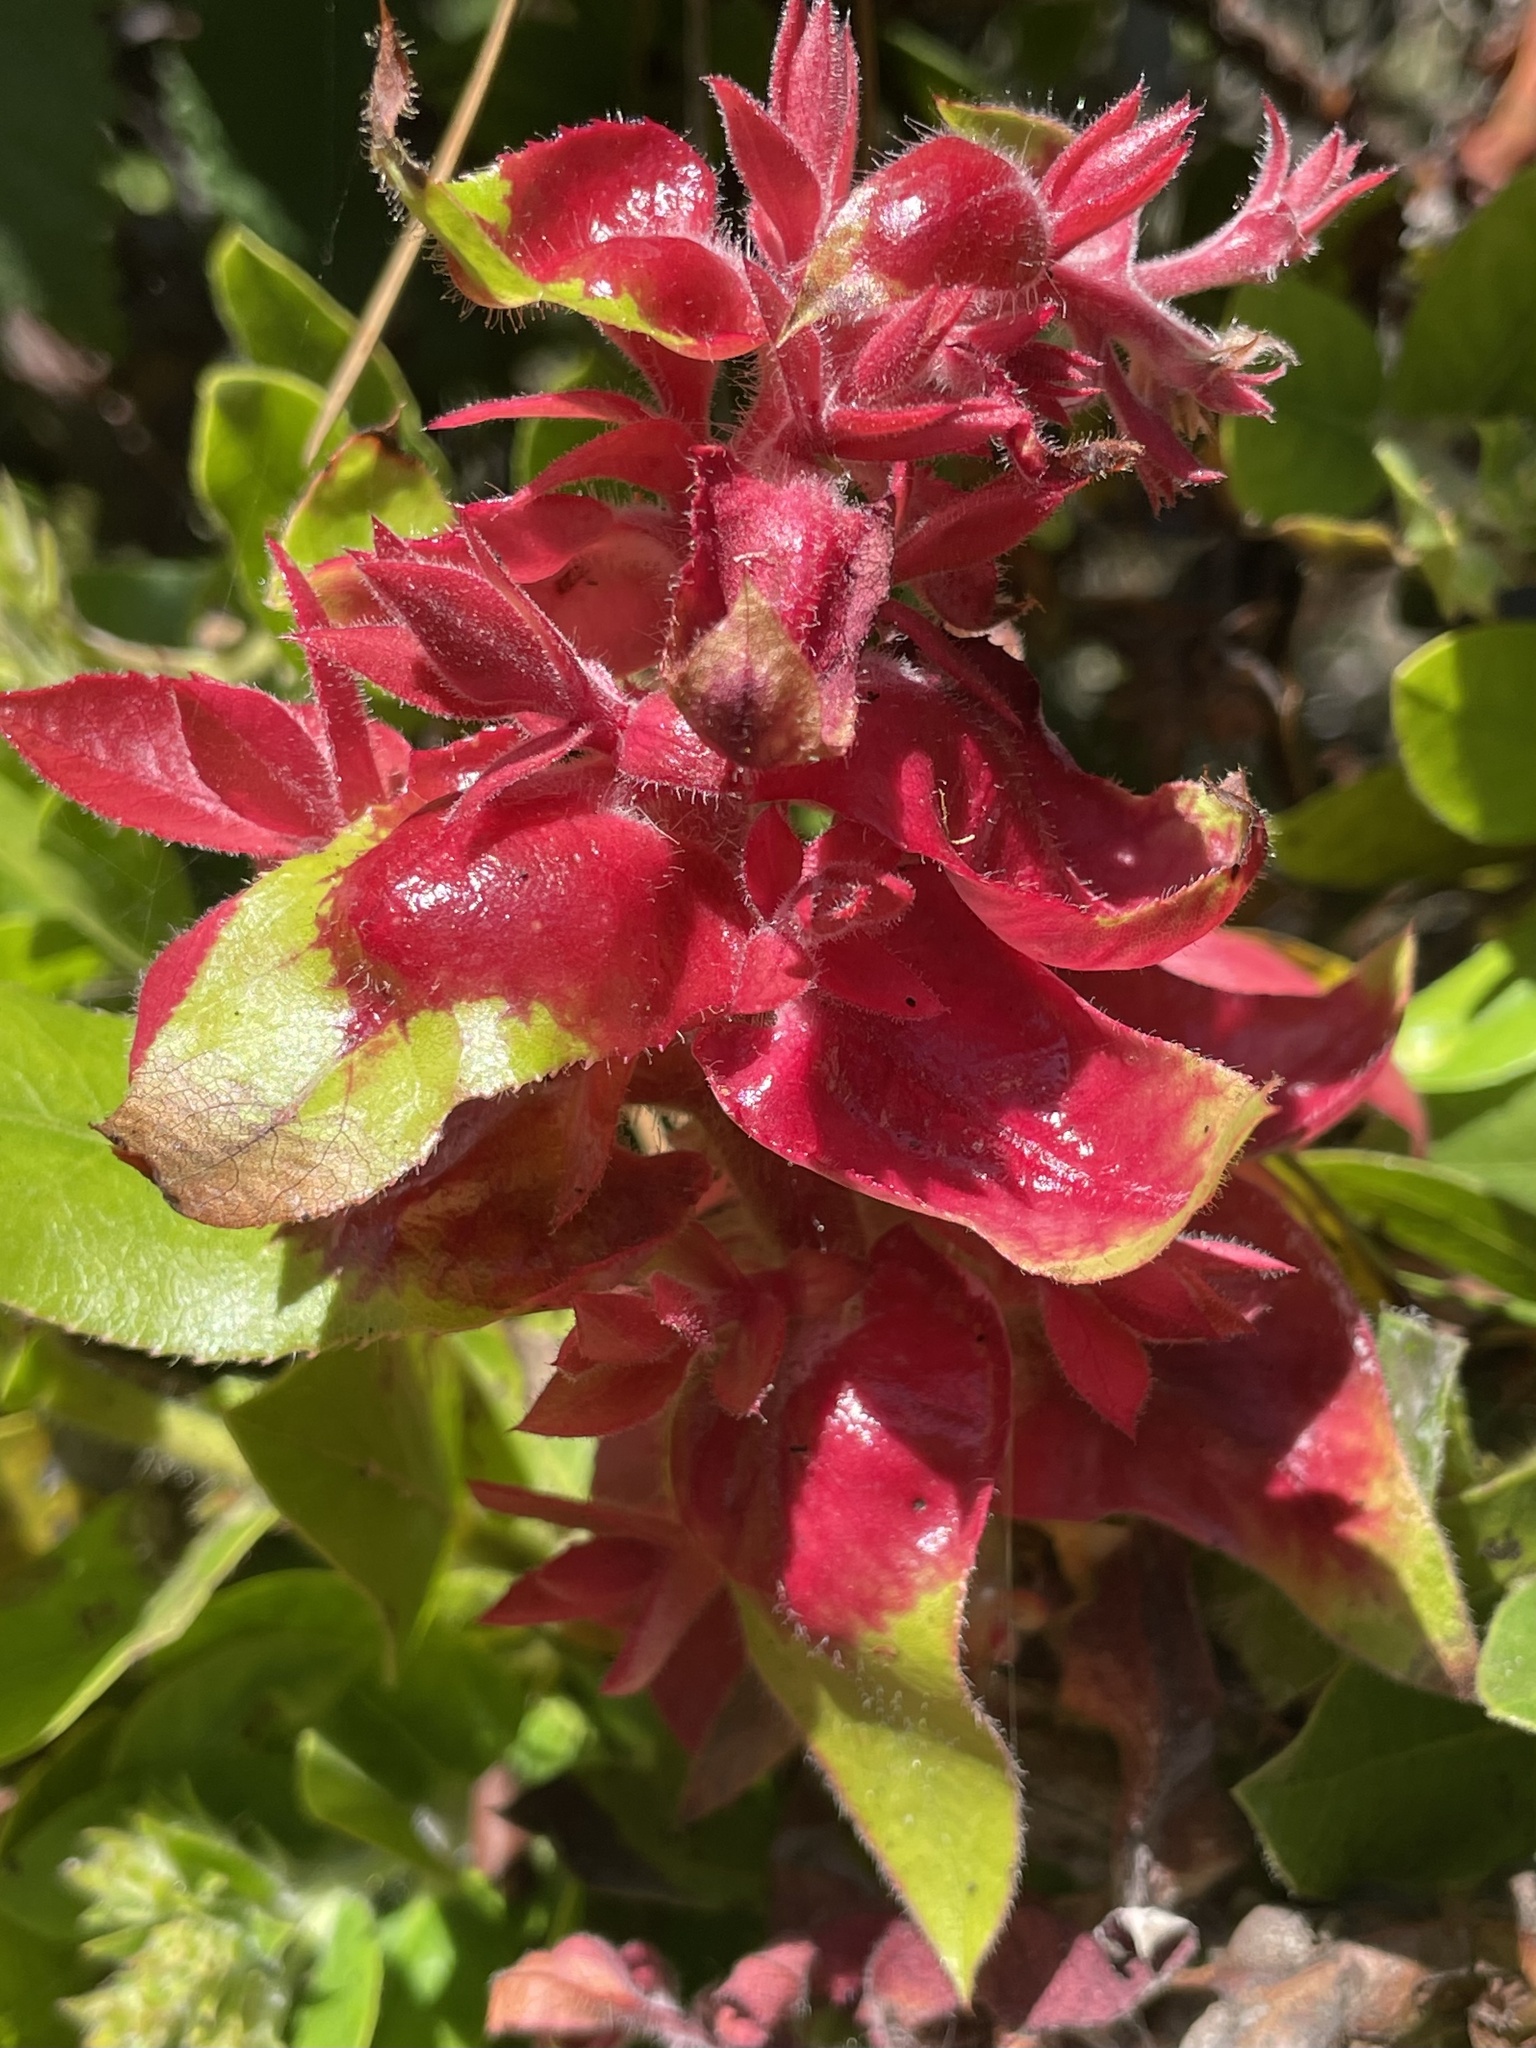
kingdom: Fungi
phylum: Basidiomycota
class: Exobasidiomycetes
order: Exobasidiales
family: Exobasidiaceae
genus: Exobasidium
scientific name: Exobasidium arctostaphyli
